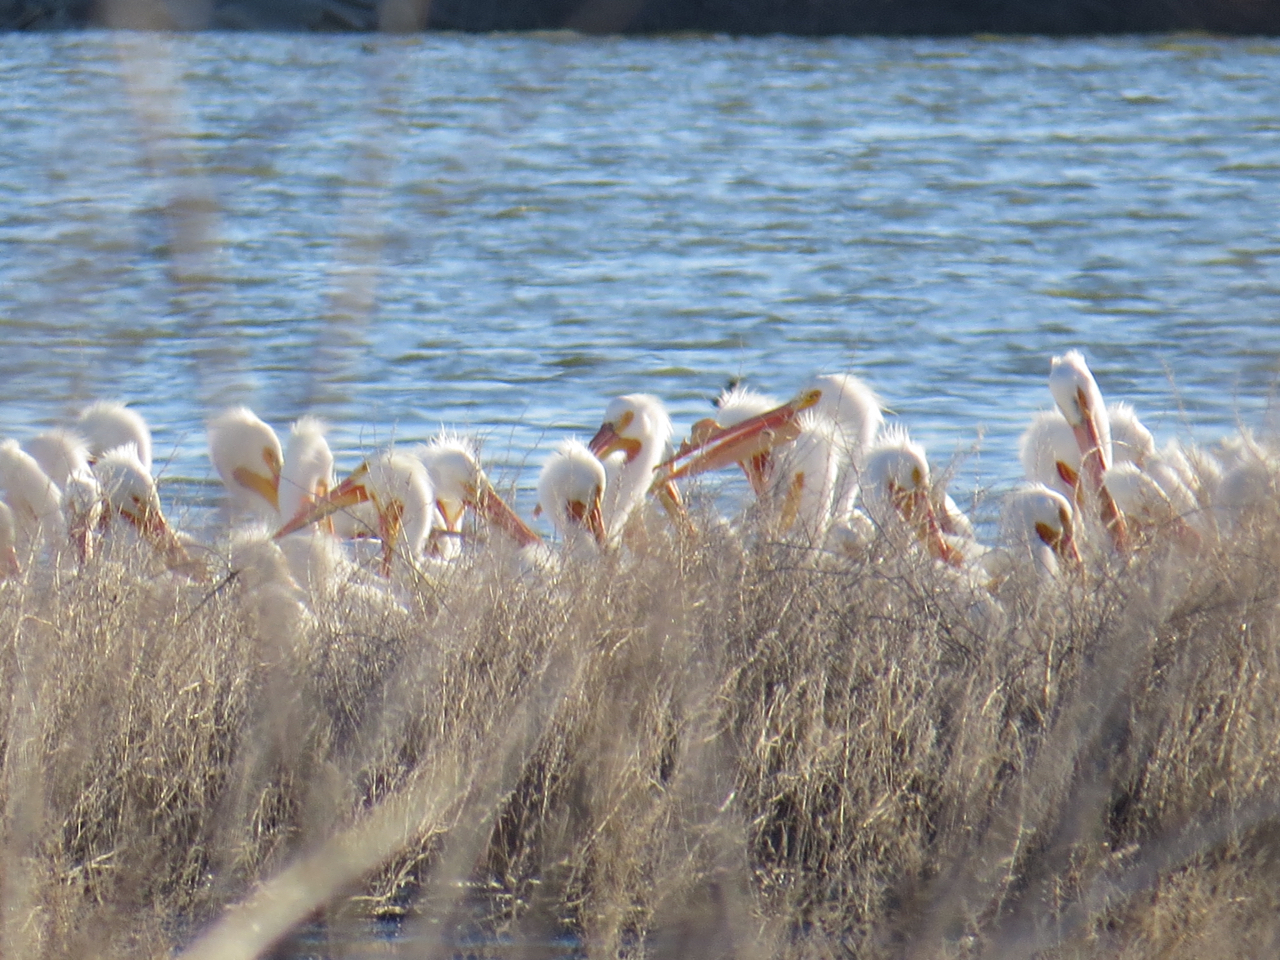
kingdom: Animalia
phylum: Chordata
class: Aves
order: Pelecaniformes
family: Pelecanidae
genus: Pelecanus
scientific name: Pelecanus erythrorhynchos
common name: American white pelican
